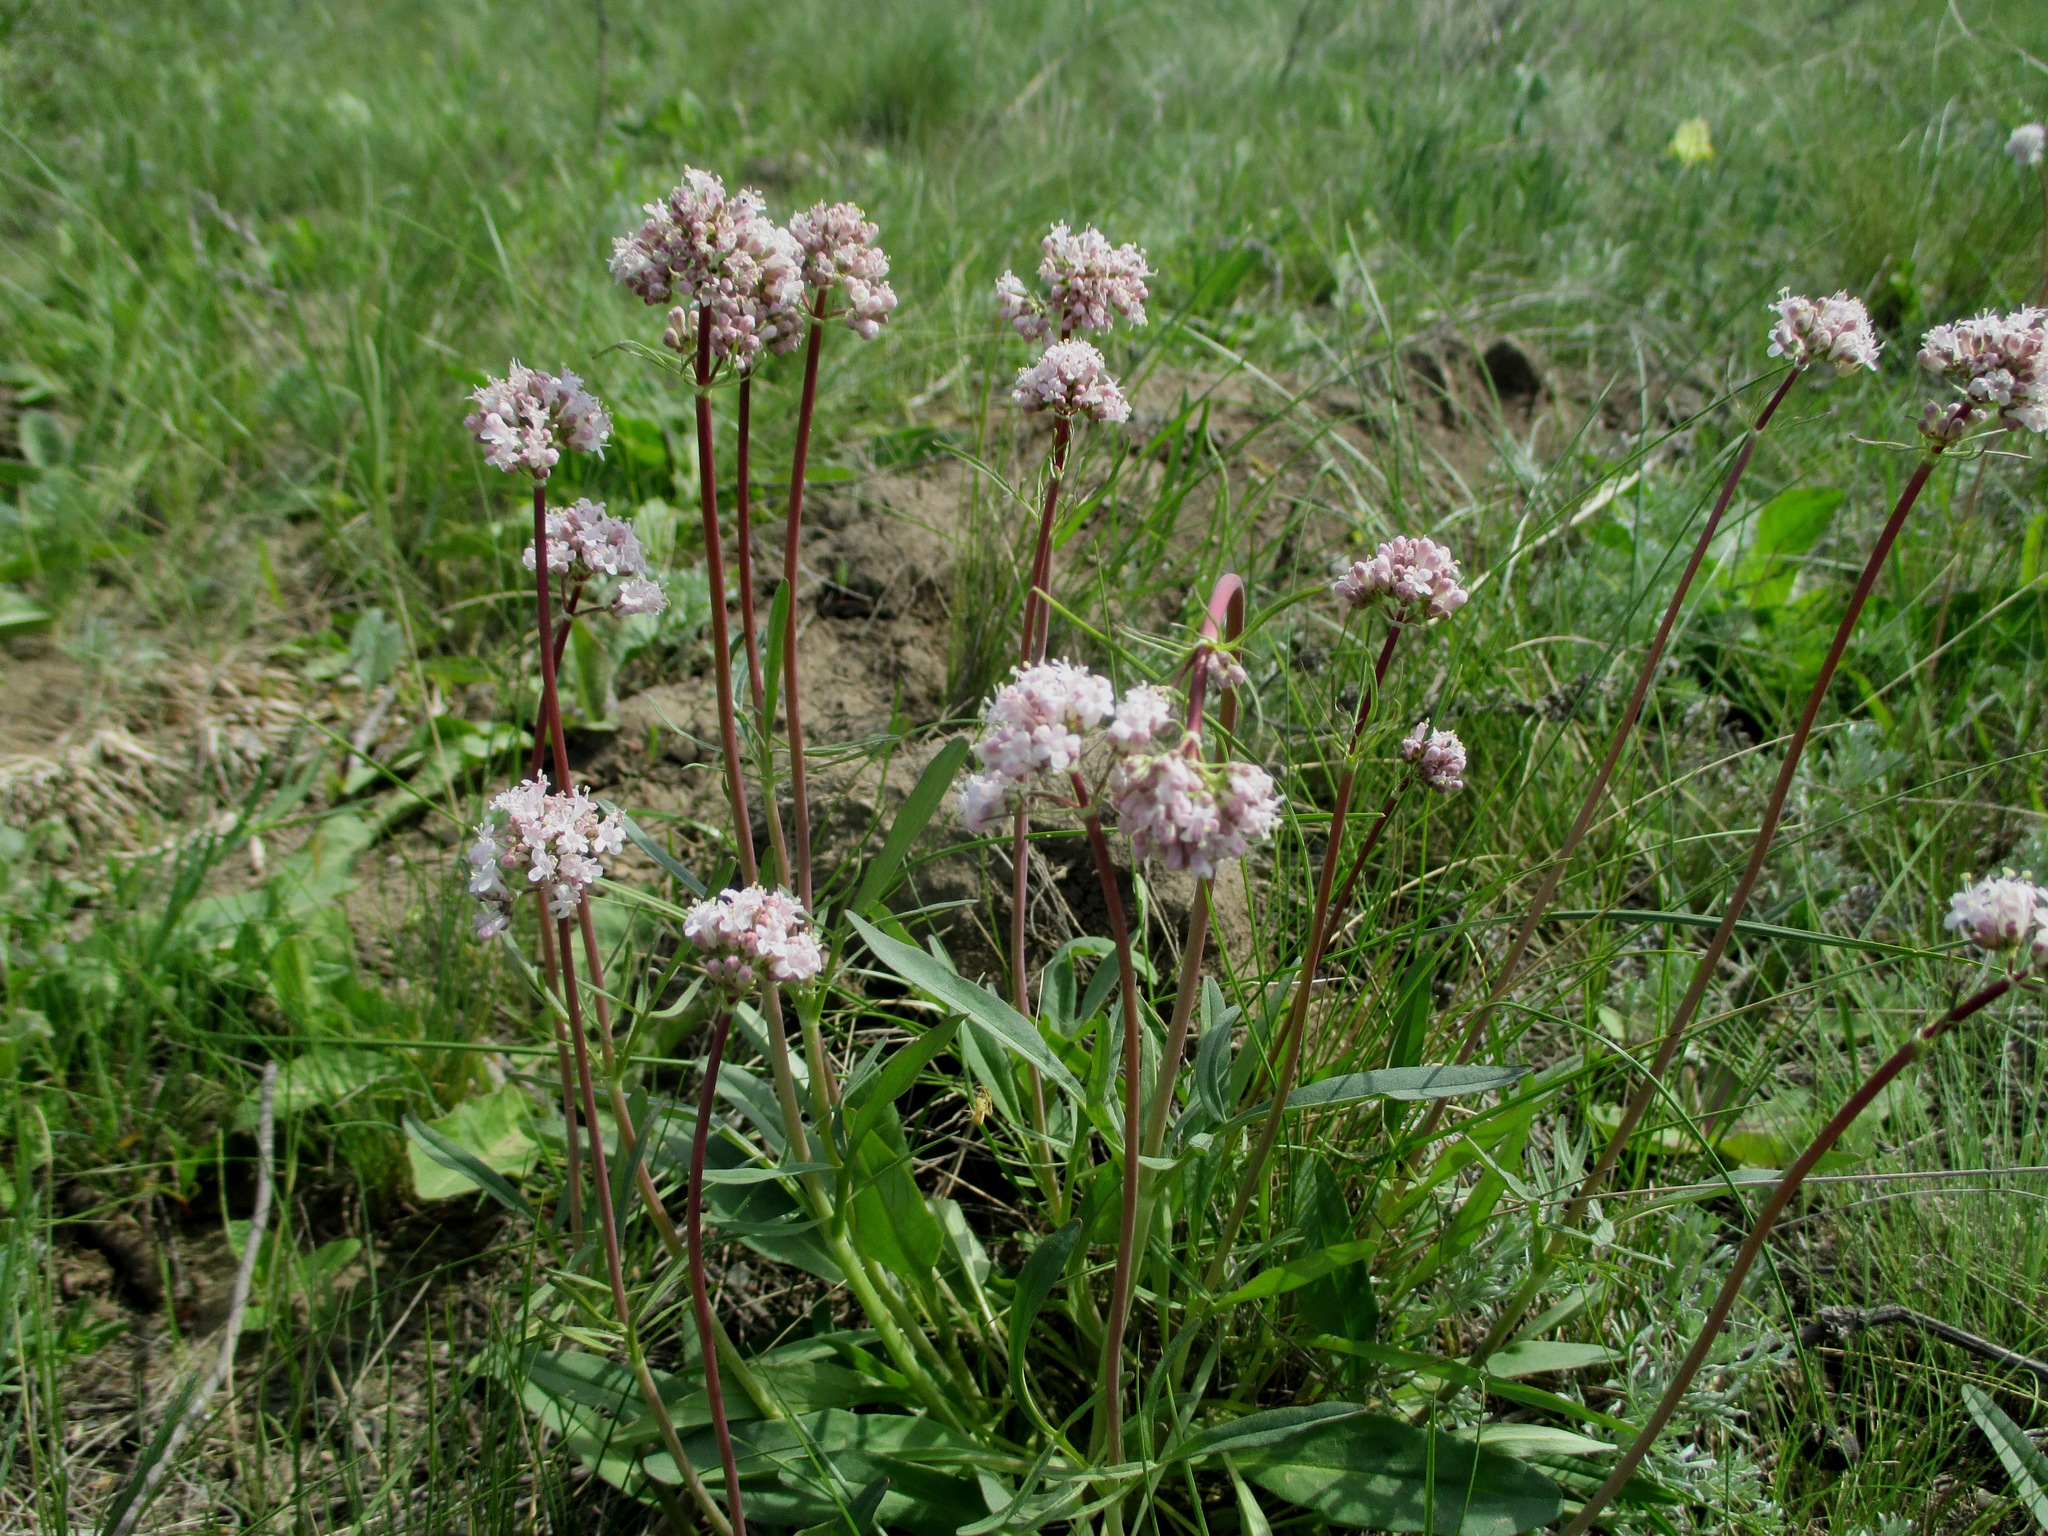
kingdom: Plantae
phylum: Tracheophyta
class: Magnoliopsida
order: Dipsacales
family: Caprifoliaceae
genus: Valeriana
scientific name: Valeriana tuberosa
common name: Tuberous valerian
